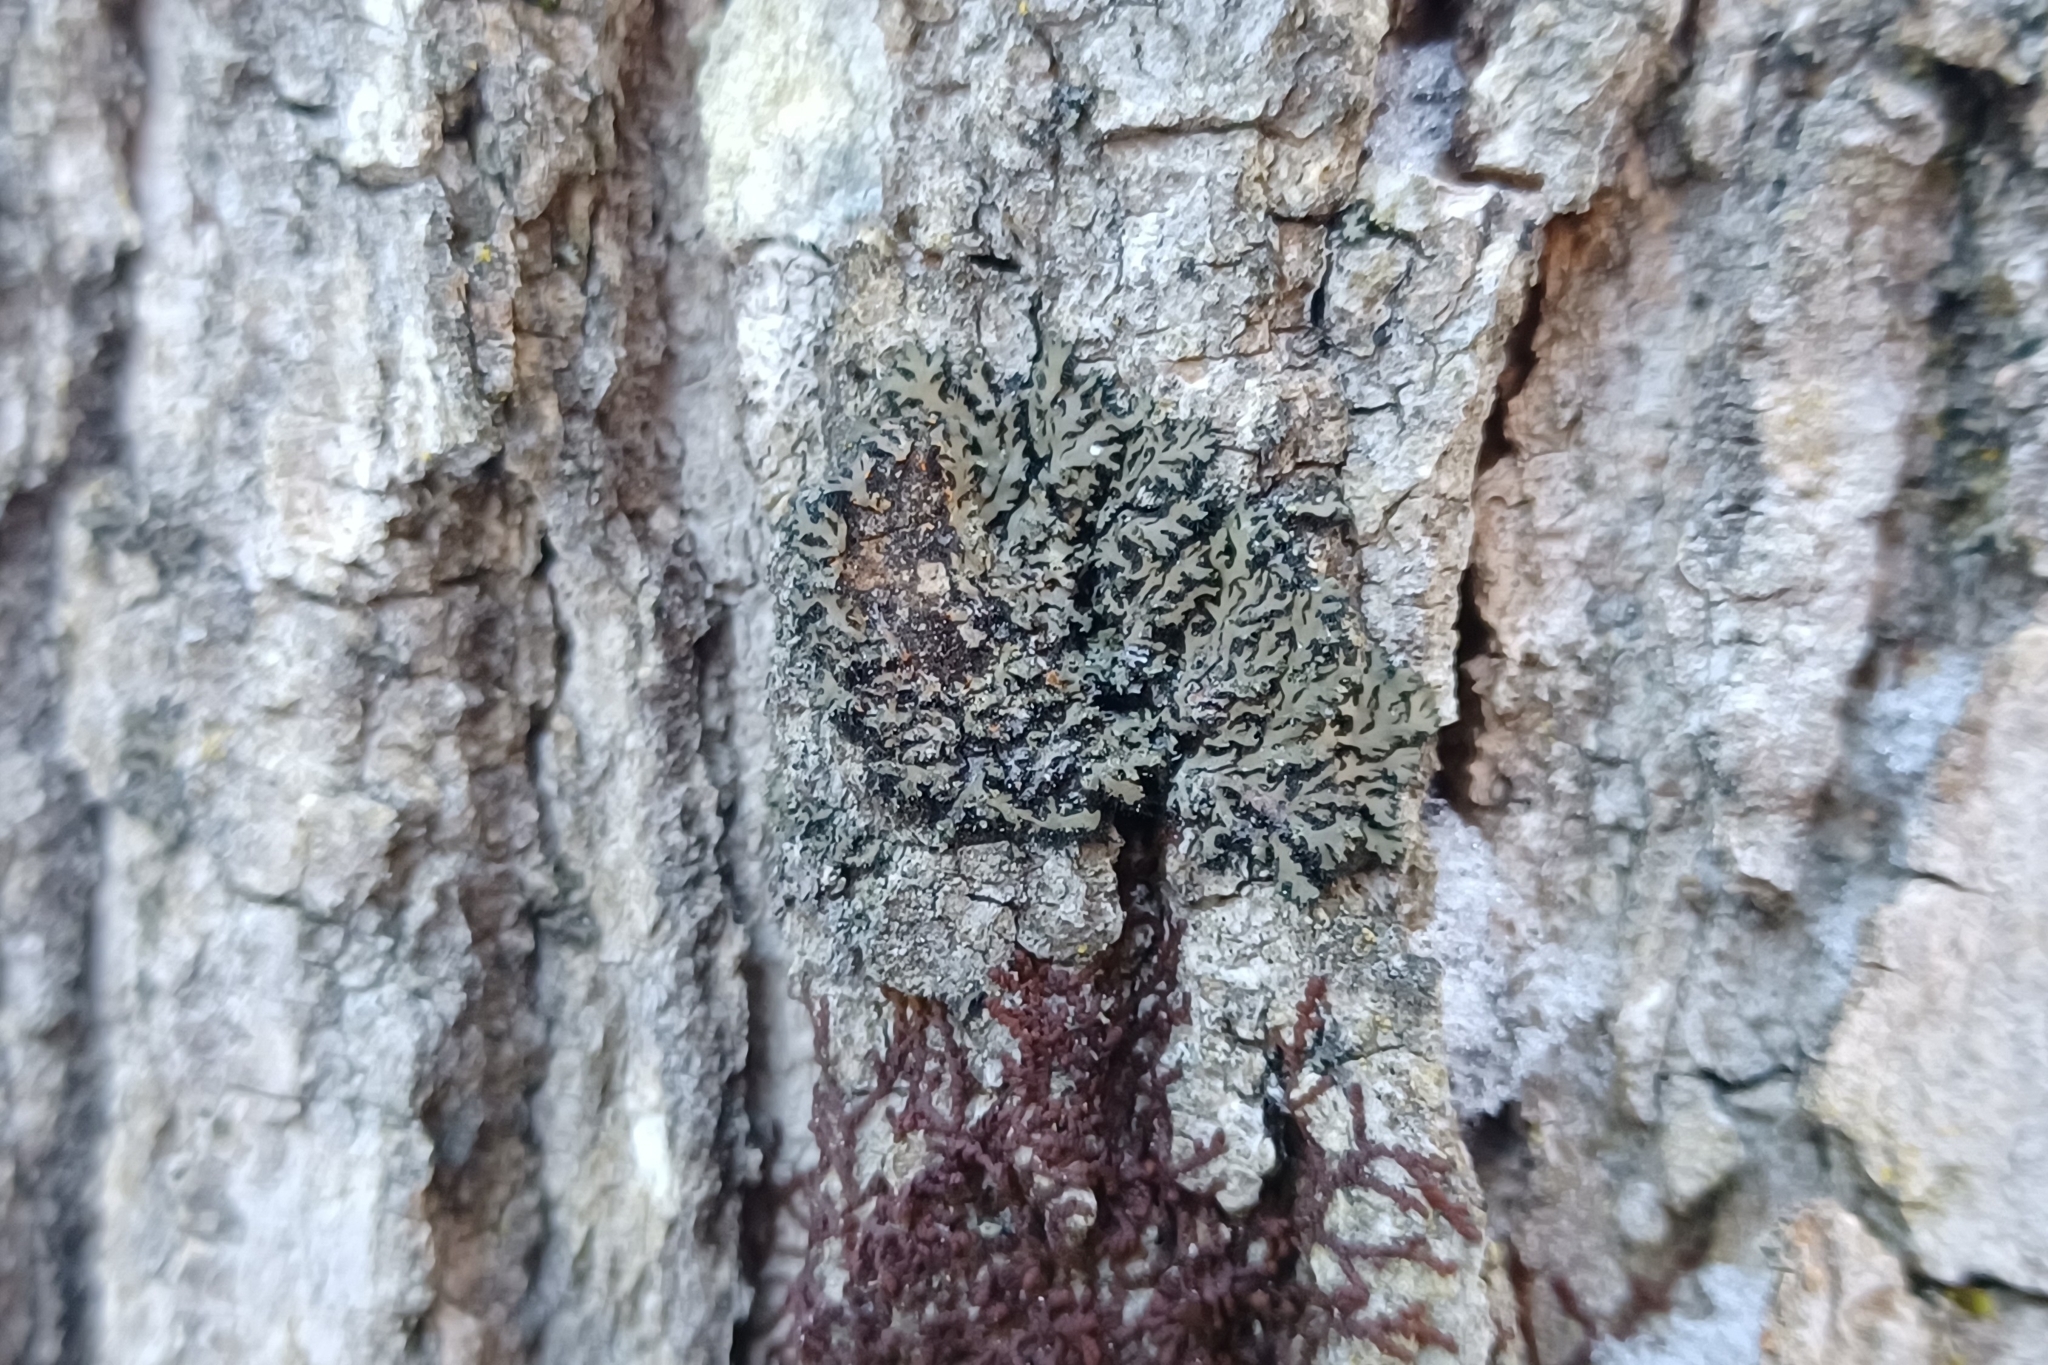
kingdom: Fungi
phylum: Ascomycota
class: Lecanoromycetes
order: Caliciales
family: Physciaceae
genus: Phaeophyscia
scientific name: Phaeophyscia rubropulchra
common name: Orange-cored shadow lichen
